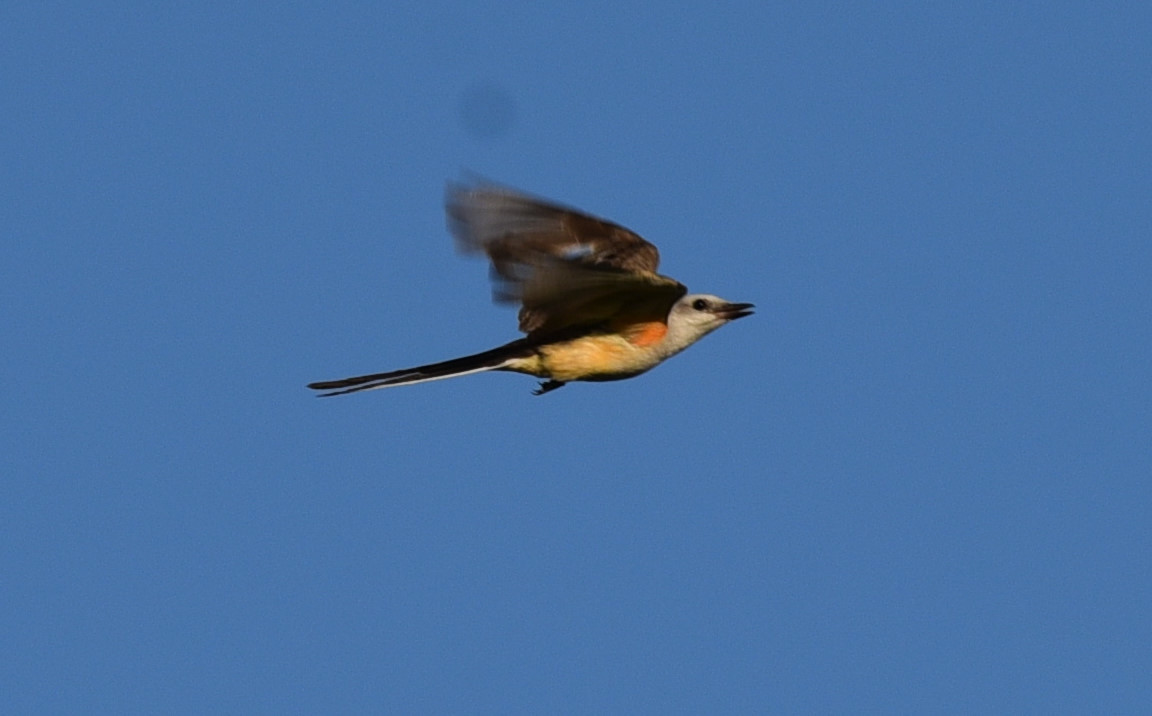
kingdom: Animalia
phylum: Chordata
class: Aves
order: Passeriformes
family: Tyrannidae
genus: Tyrannus
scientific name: Tyrannus forficatus
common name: Scissor-tailed flycatcher
